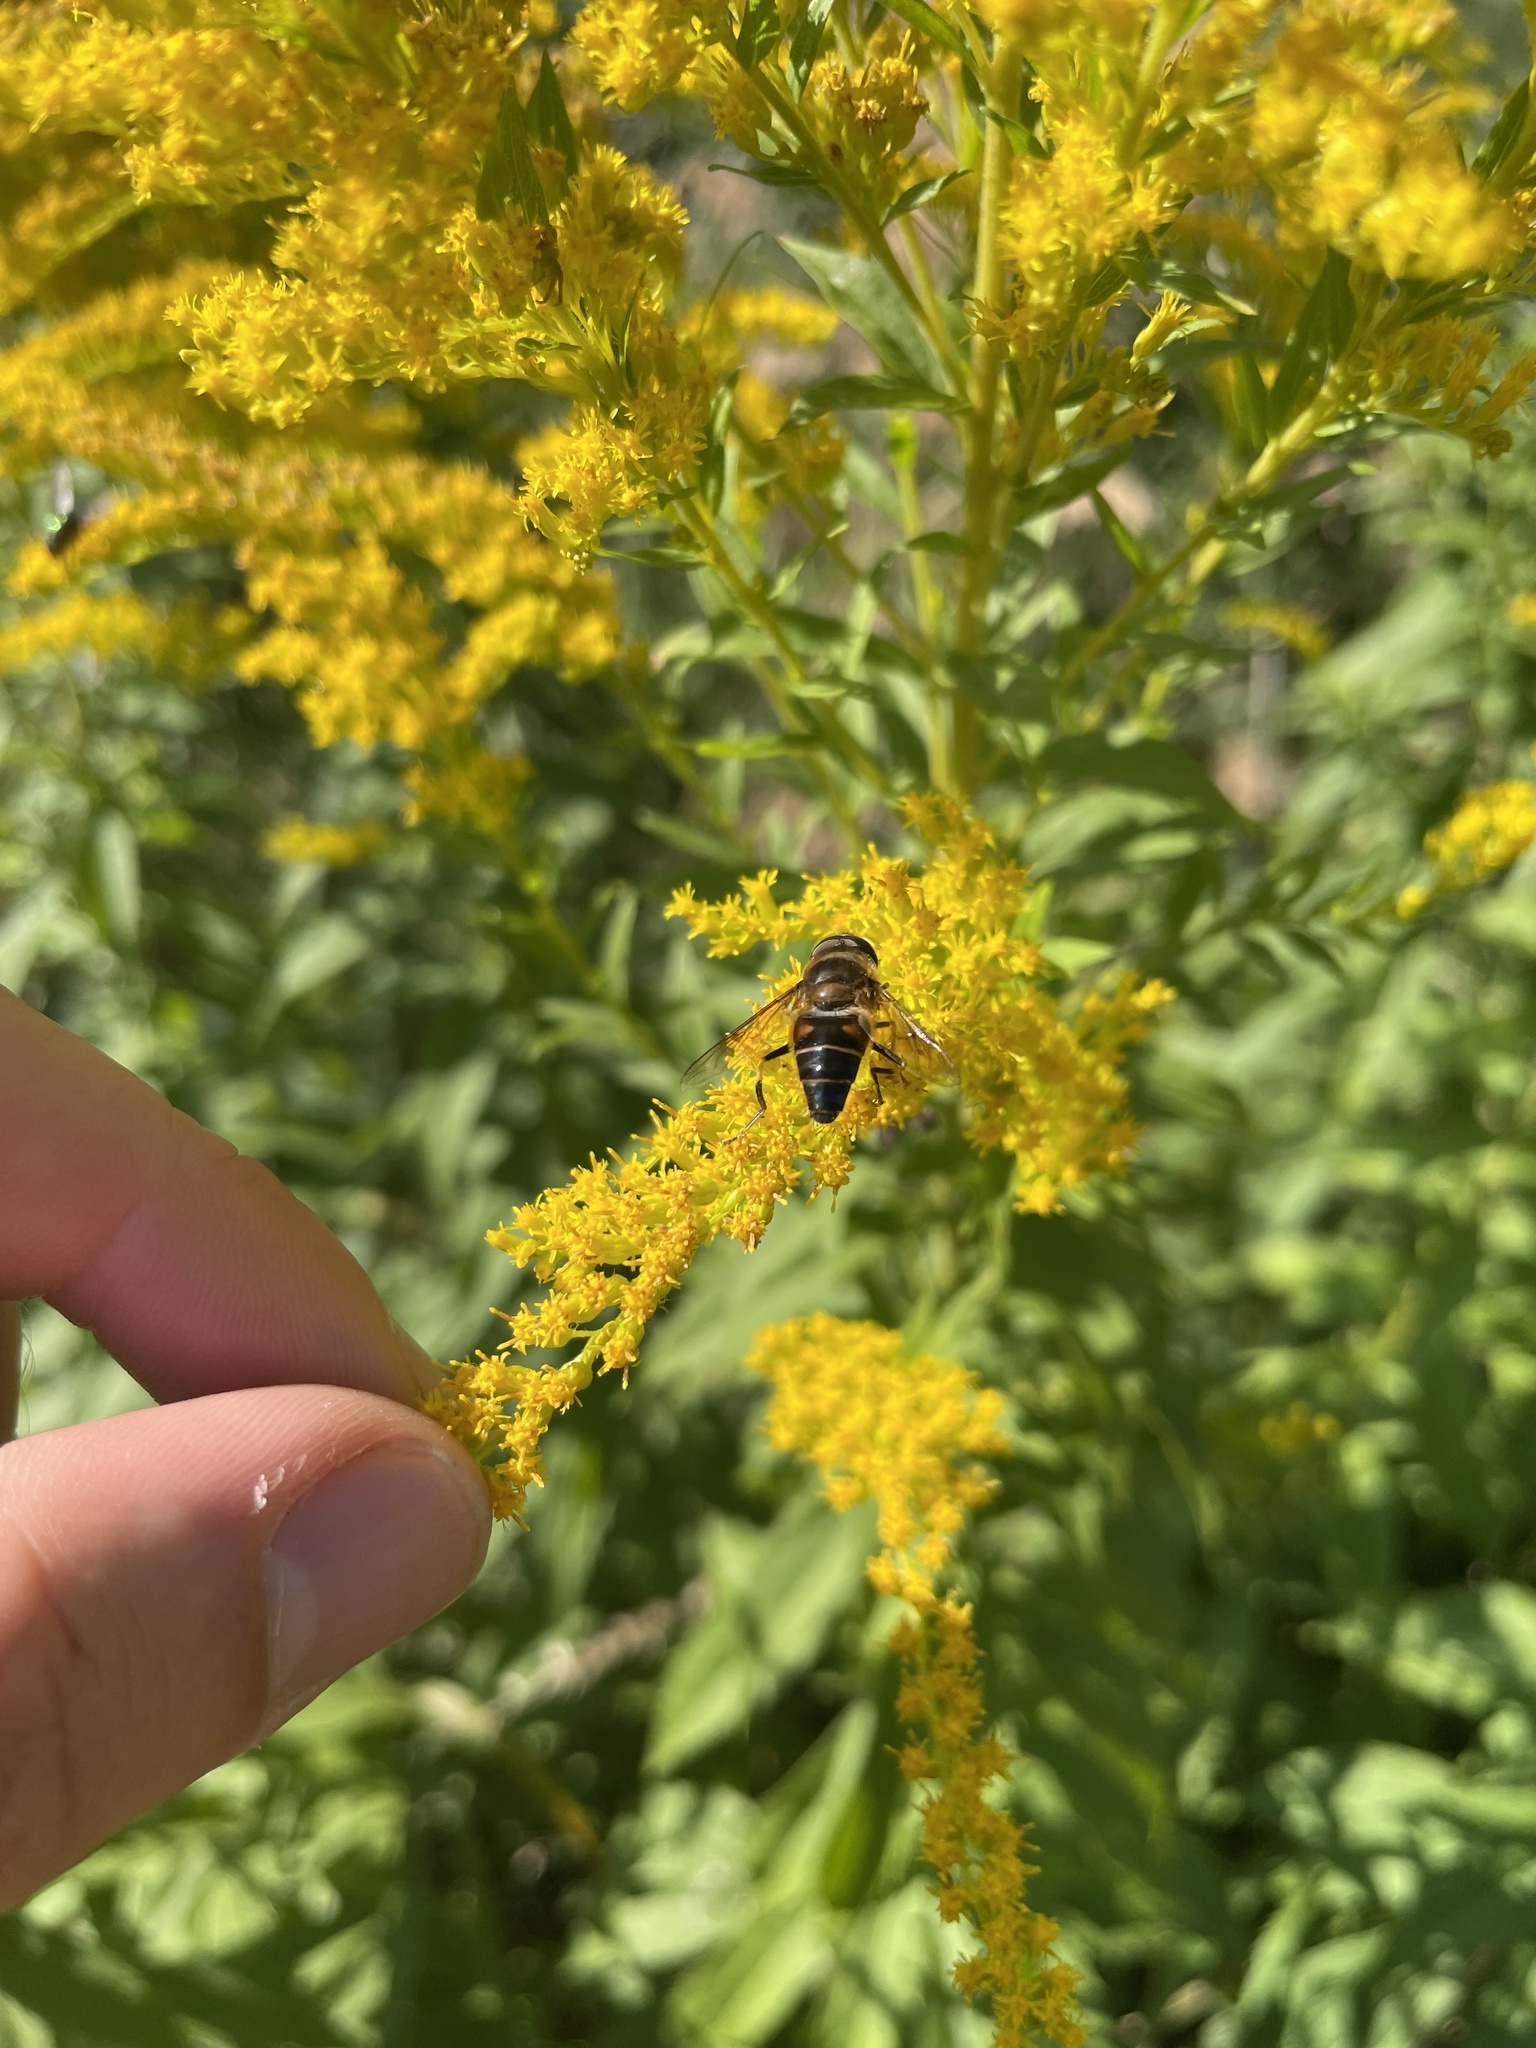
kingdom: Animalia
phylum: Arthropoda
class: Insecta
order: Diptera
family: Syrphidae
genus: Eristalis
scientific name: Eristalis pertinax
